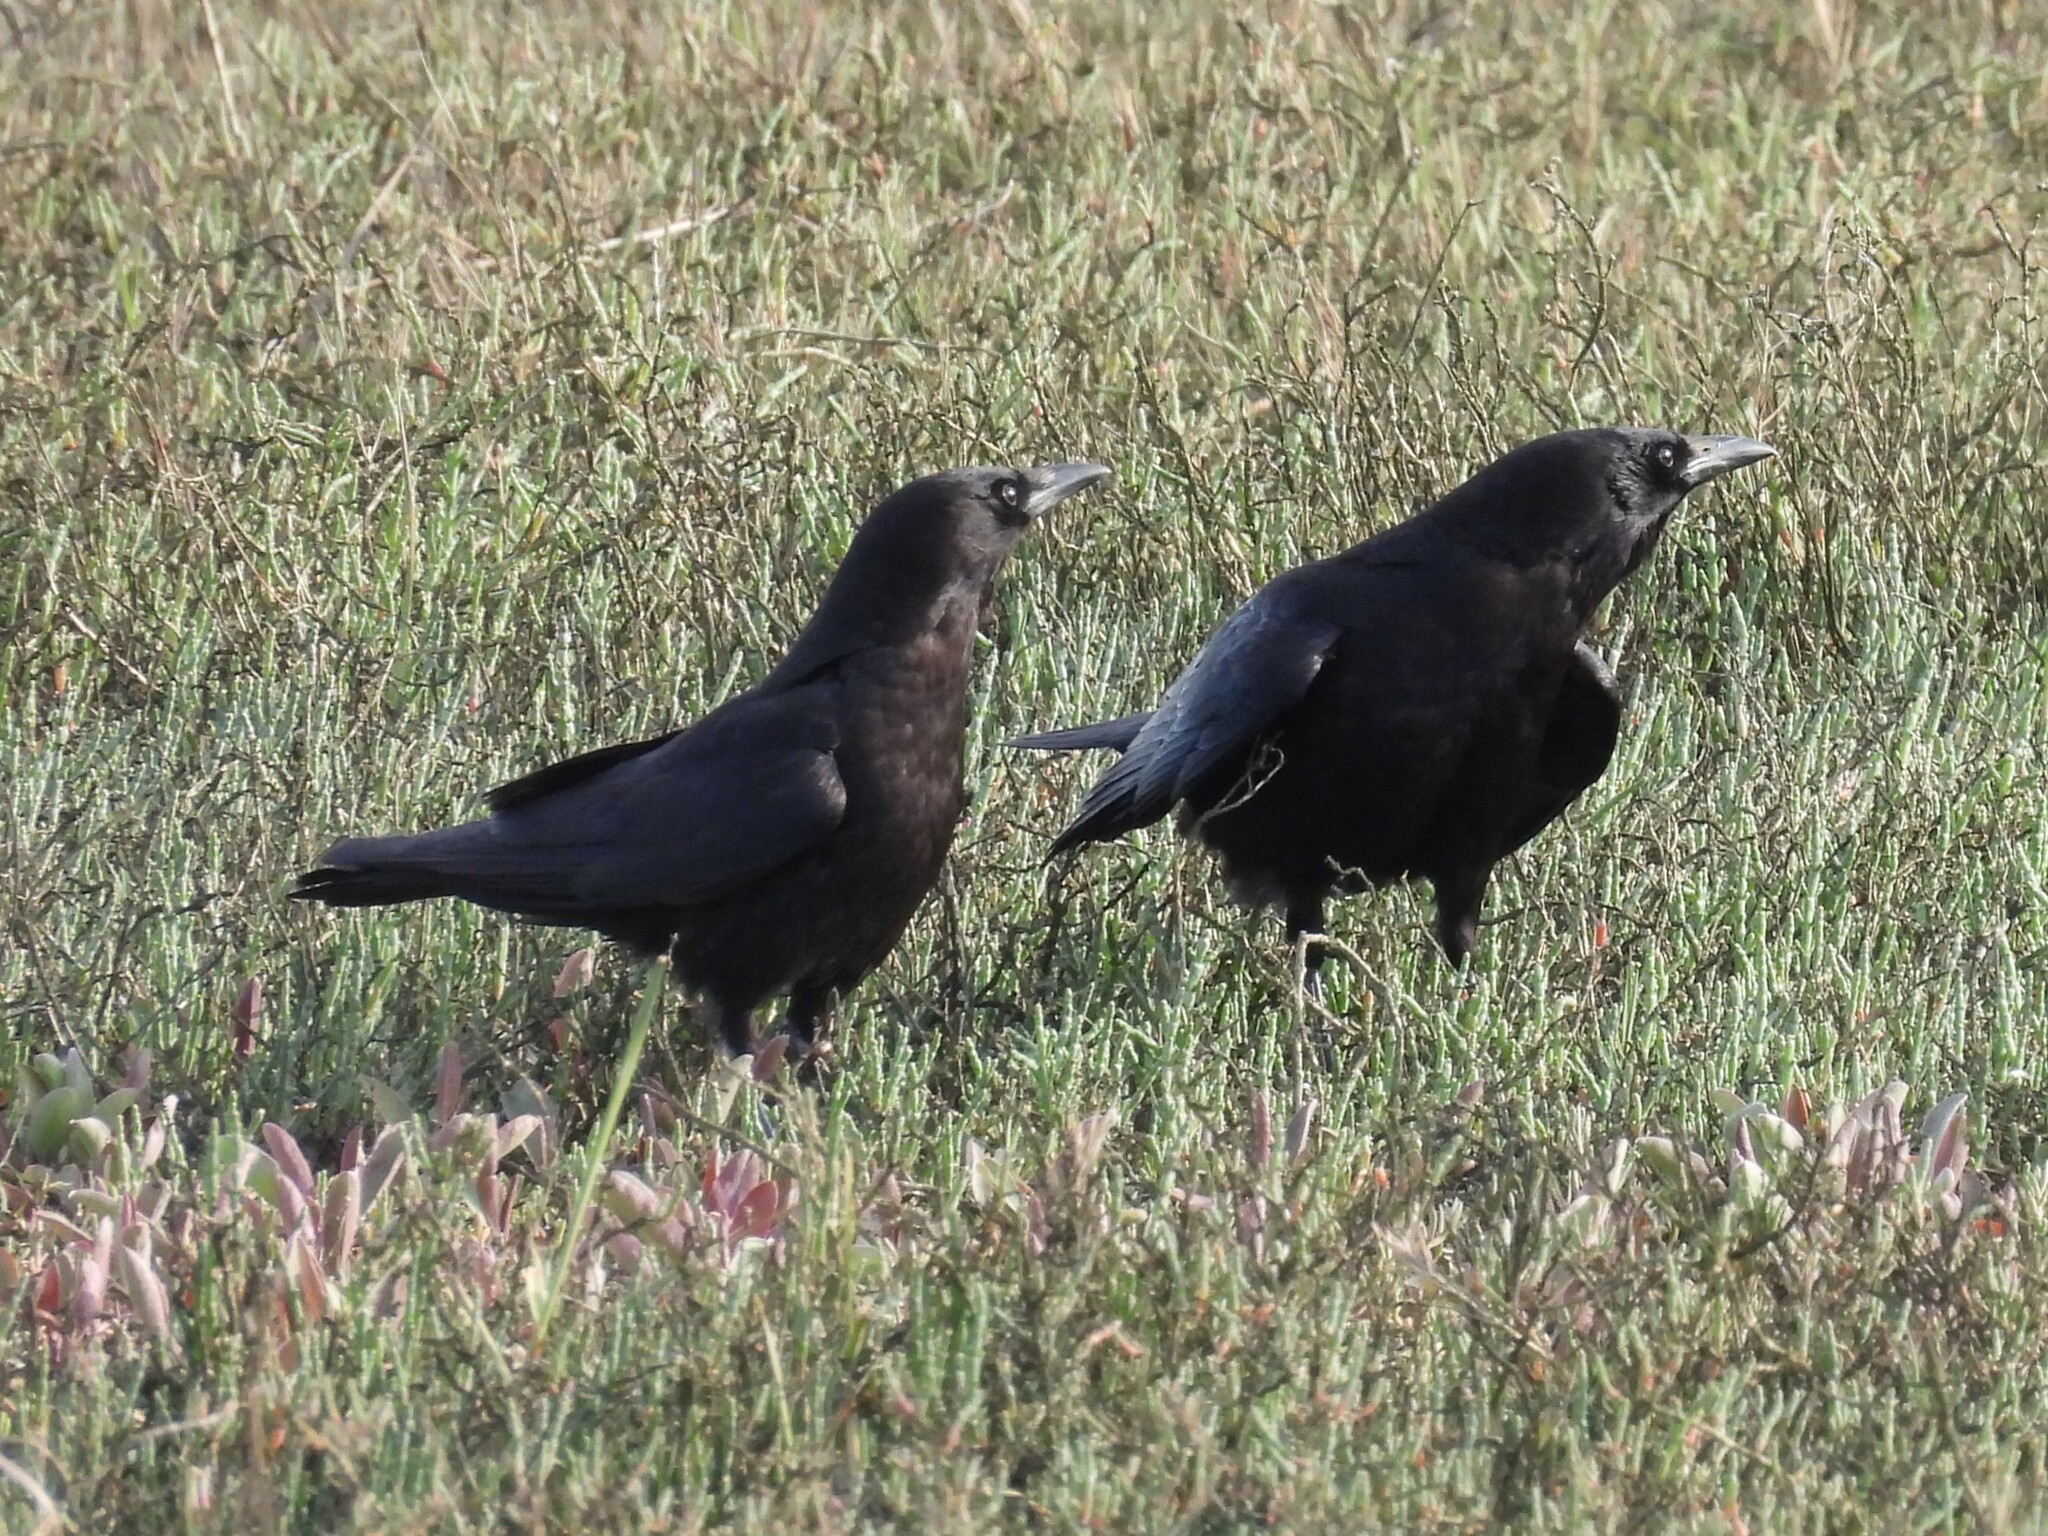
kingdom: Animalia
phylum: Chordata
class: Aves
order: Passeriformes
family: Corvidae
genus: Corvus
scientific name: Corvus brachyrhynchos
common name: American crow
